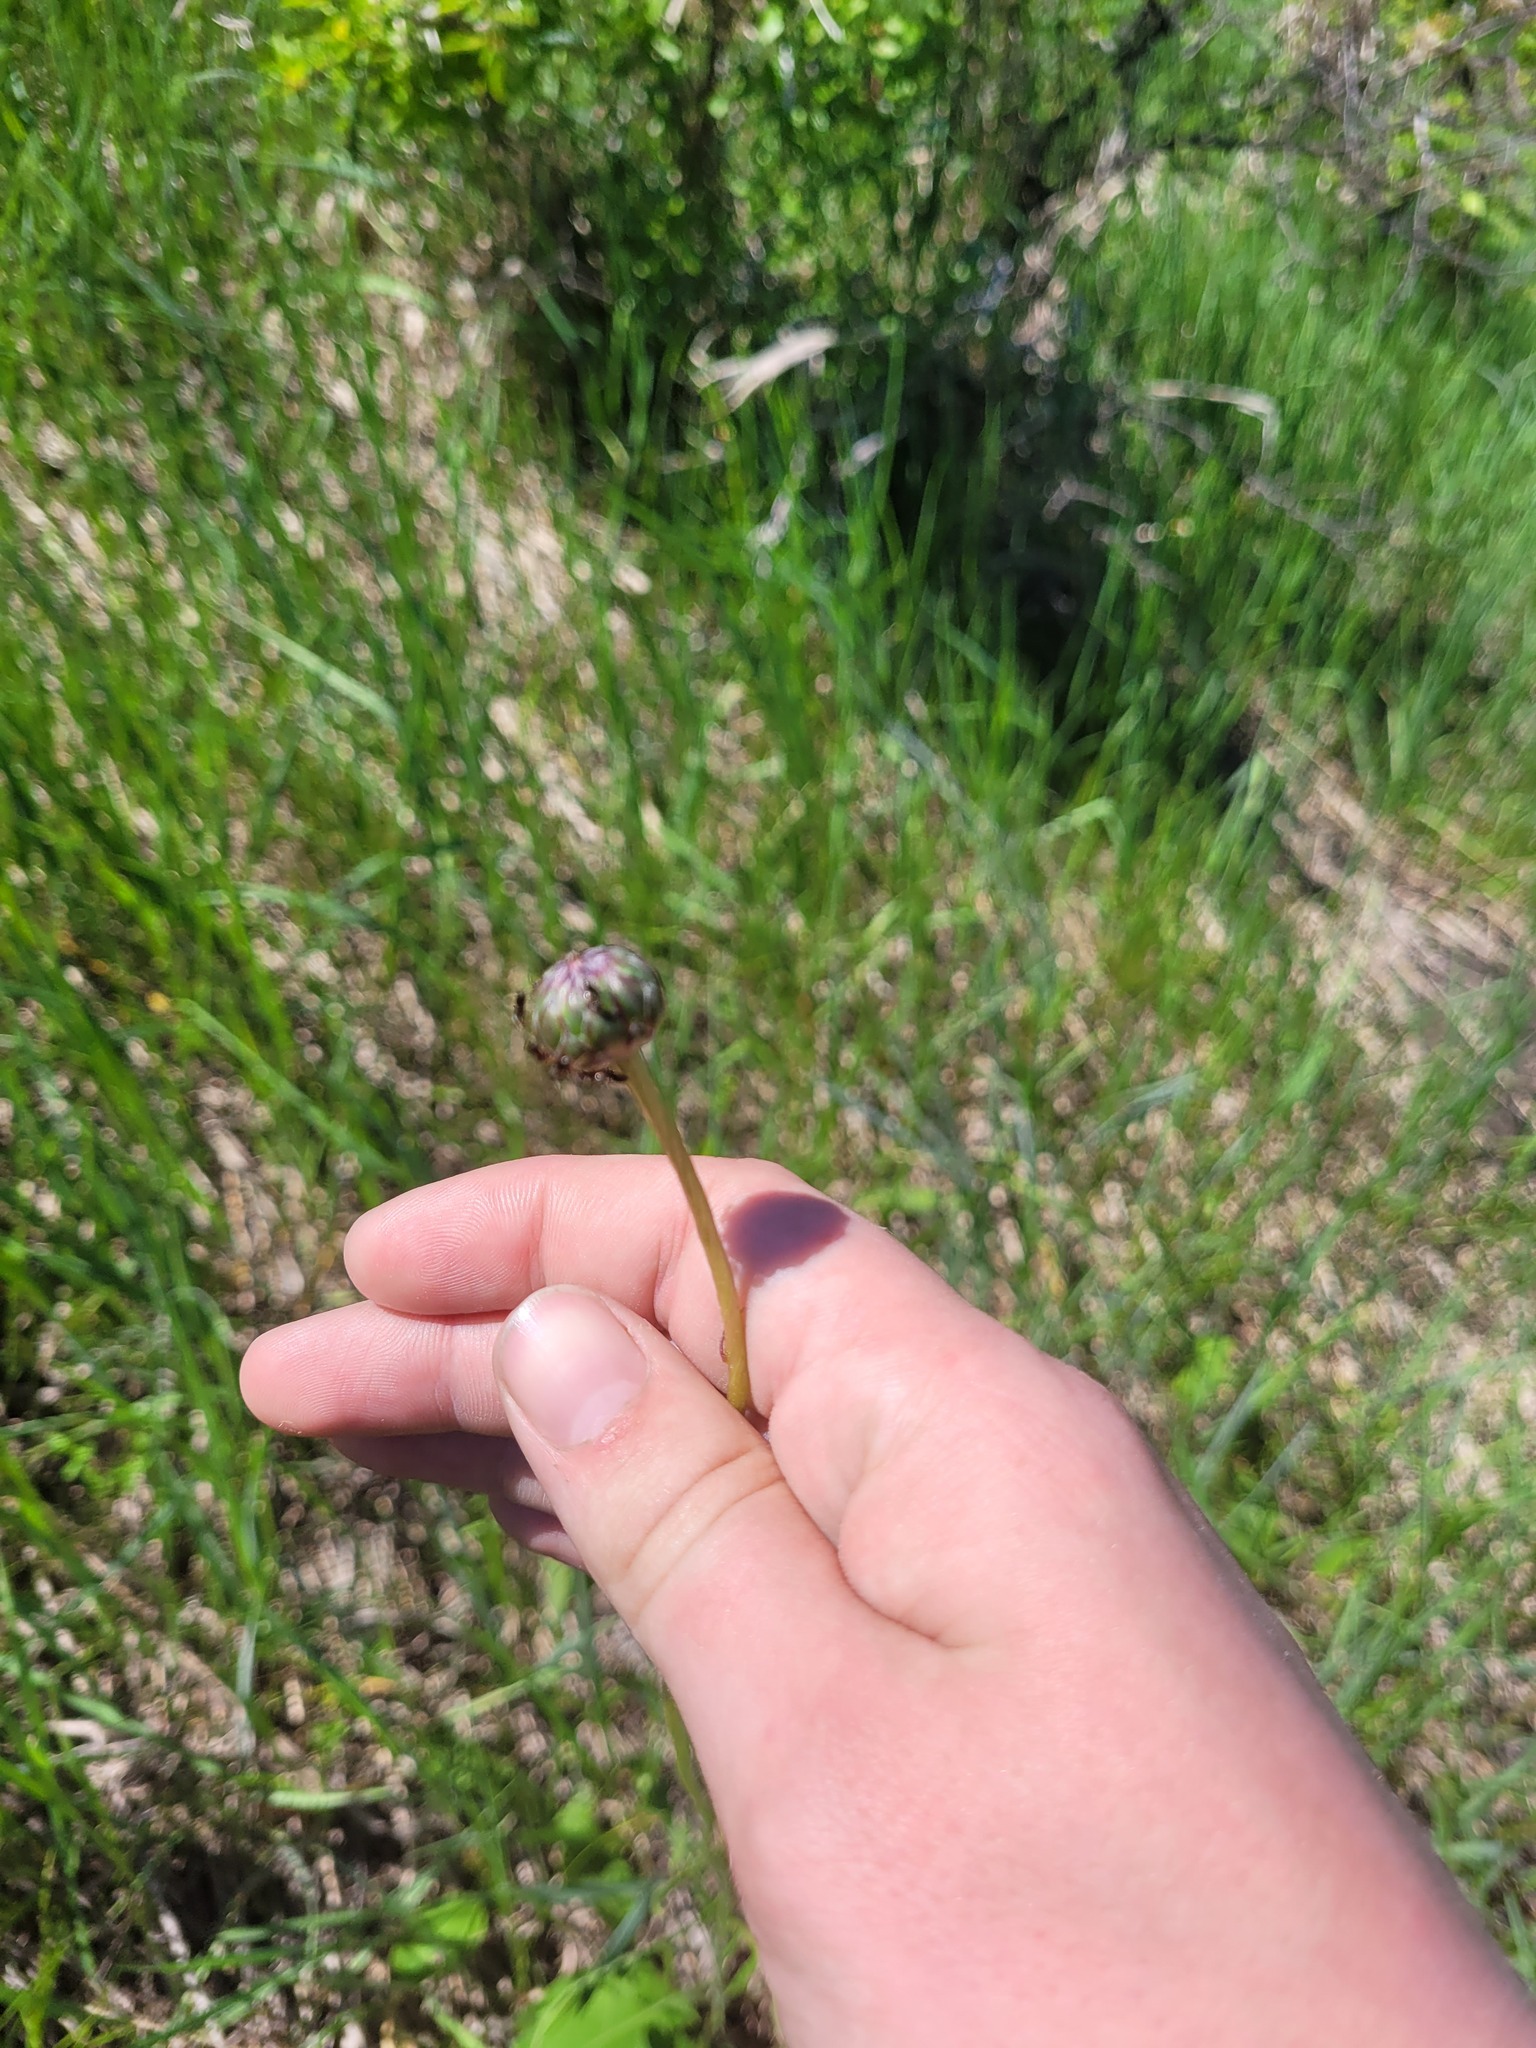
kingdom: Plantae
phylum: Tracheophyta
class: Magnoliopsida
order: Asterales
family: Asteraceae
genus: Klasea
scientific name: Klasea lycopifolia
